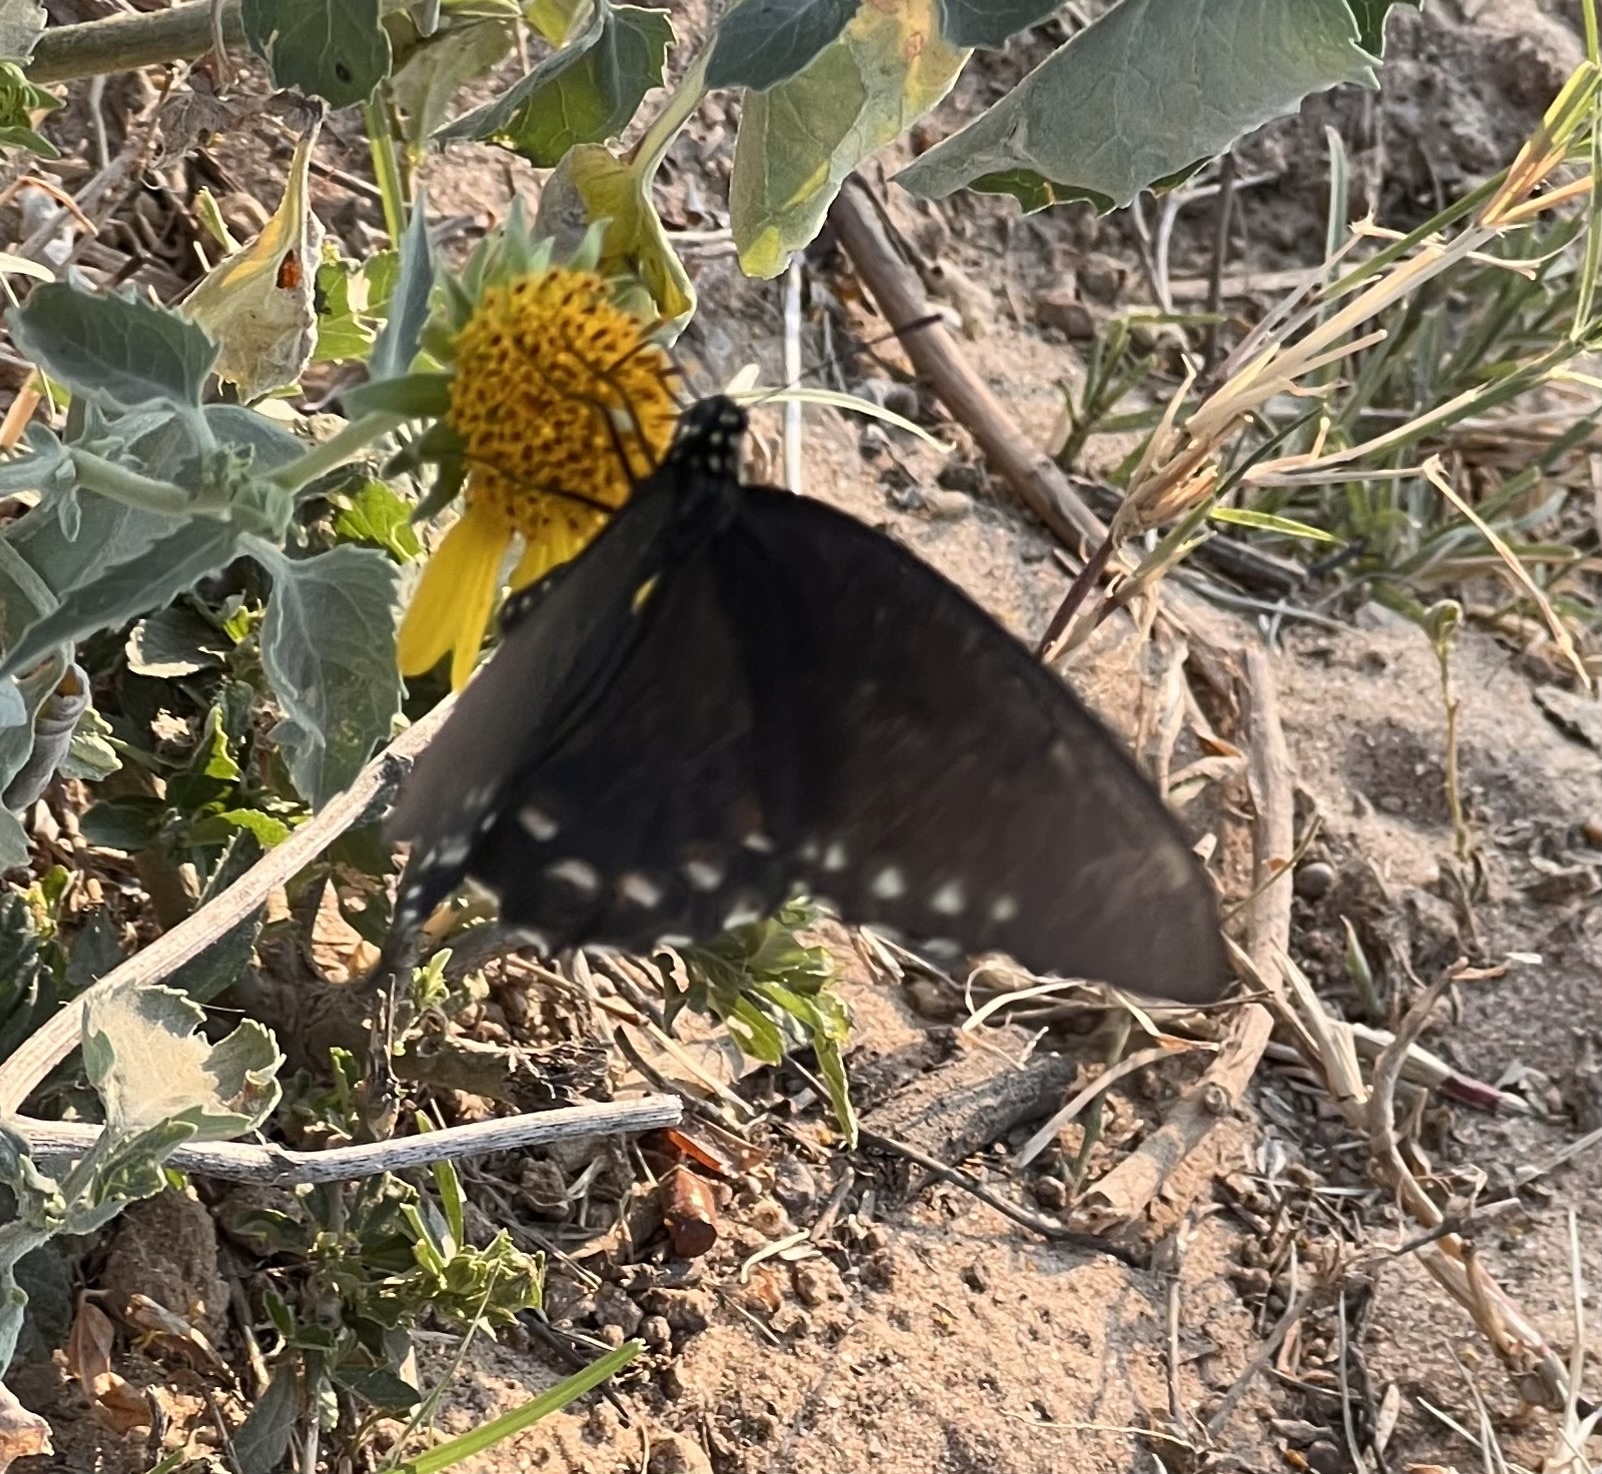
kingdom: Animalia
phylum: Arthropoda
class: Insecta
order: Lepidoptera
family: Papilionidae
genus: Battus
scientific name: Battus philenor
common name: Pipevine swallowtail
